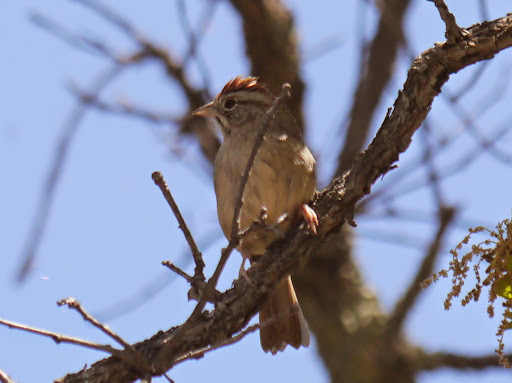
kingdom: Animalia
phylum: Chordata
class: Aves
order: Passeriformes
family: Passerellidae
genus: Aimophila
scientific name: Aimophila ruficeps
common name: Rufous-crowned sparrow
